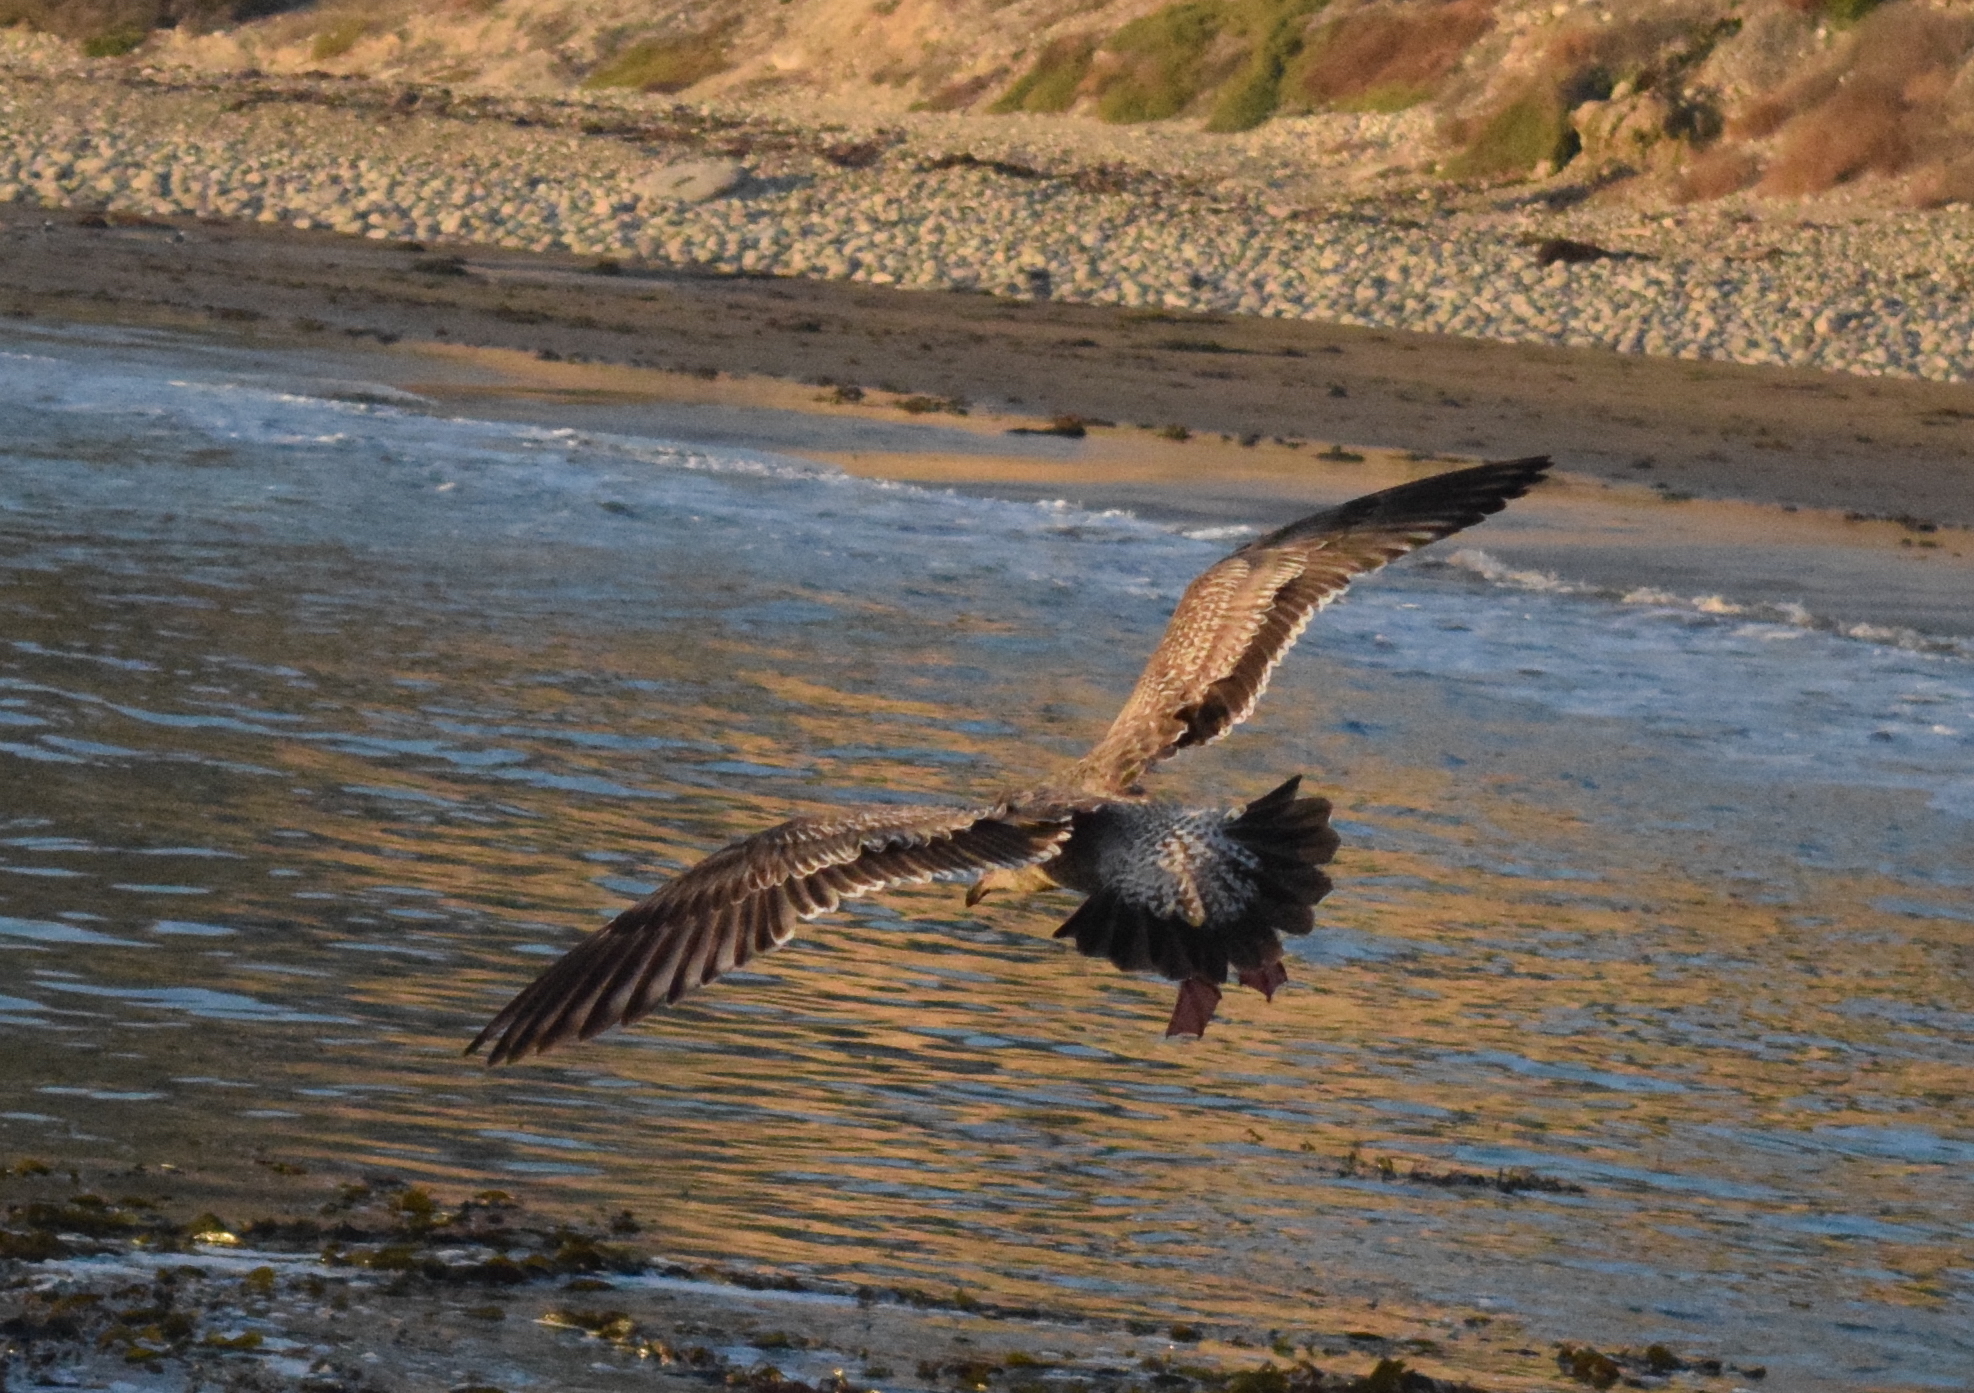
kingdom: Animalia
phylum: Chordata
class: Aves
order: Charadriiformes
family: Laridae
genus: Larus
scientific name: Larus occidentalis
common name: Western gull
